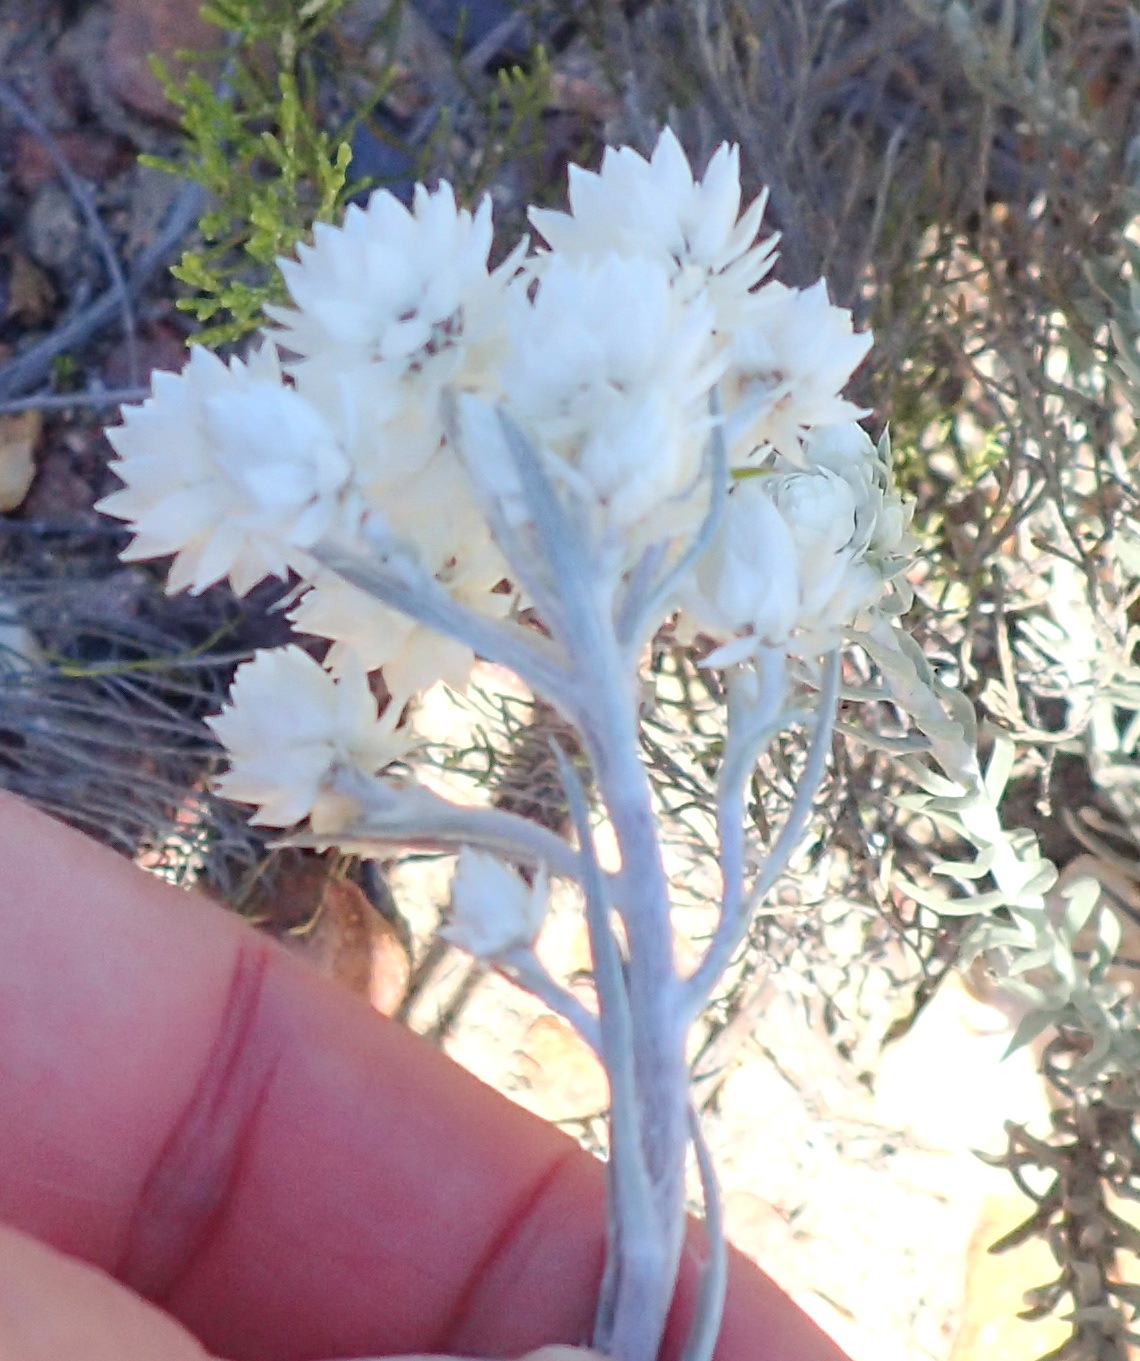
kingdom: Plantae
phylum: Tracheophyta
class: Magnoliopsida
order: Asterales
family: Asteraceae
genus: Achyranthemum
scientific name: Achyranthemum paniculatum
